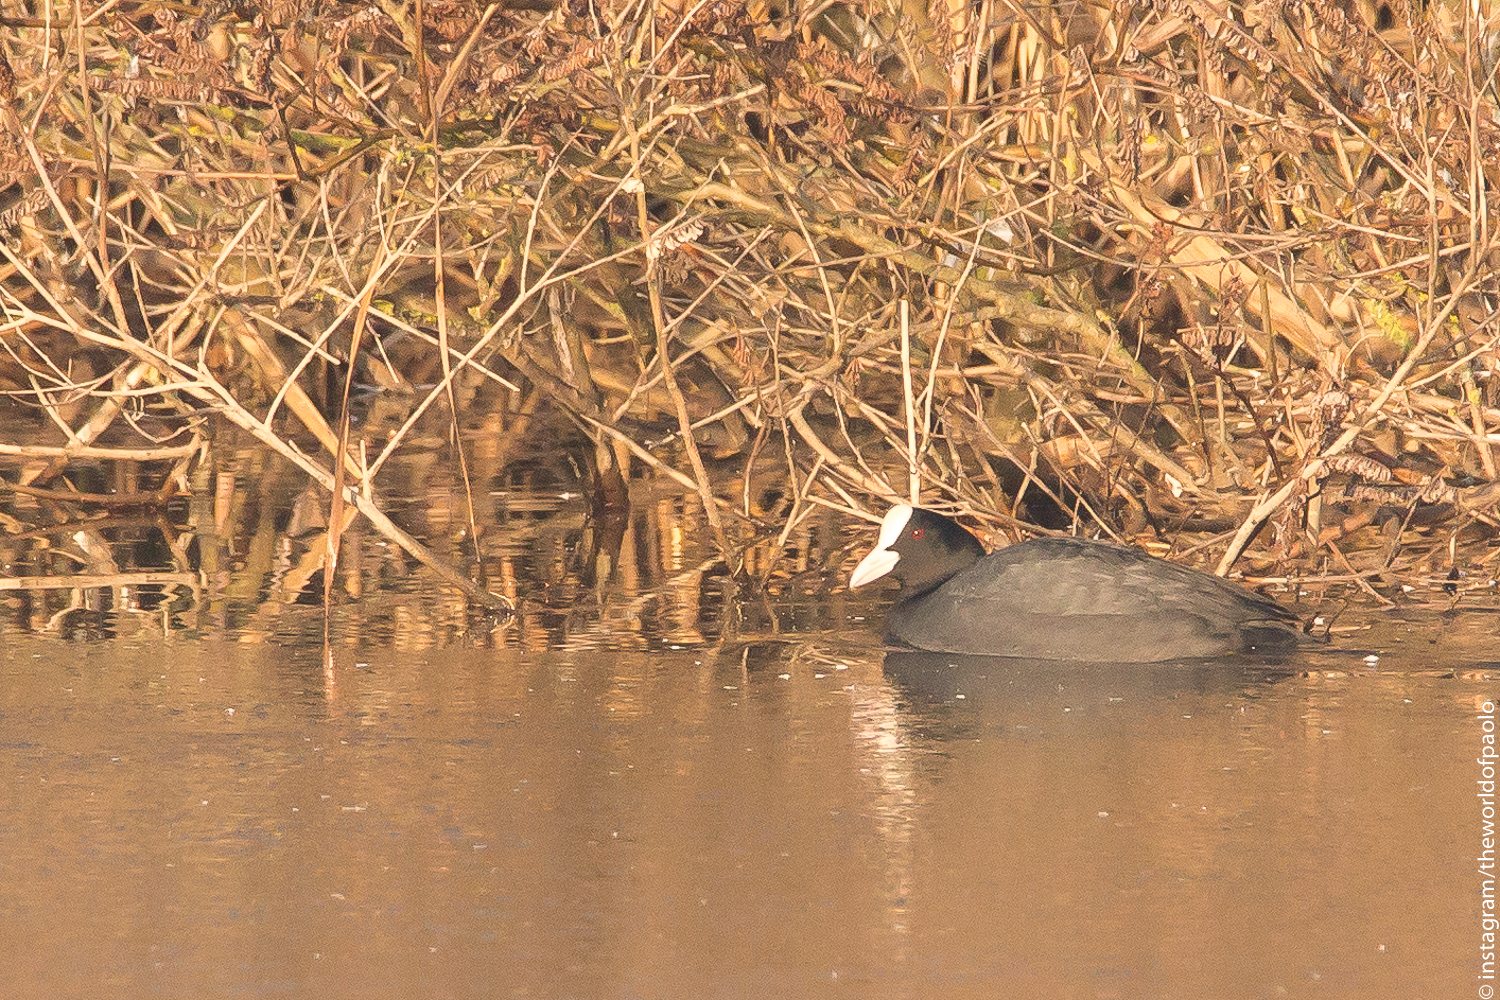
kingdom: Animalia
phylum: Chordata
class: Aves
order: Gruiformes
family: Rallidae
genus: Fulica
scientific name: Fulica atra
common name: Eurasian coot
